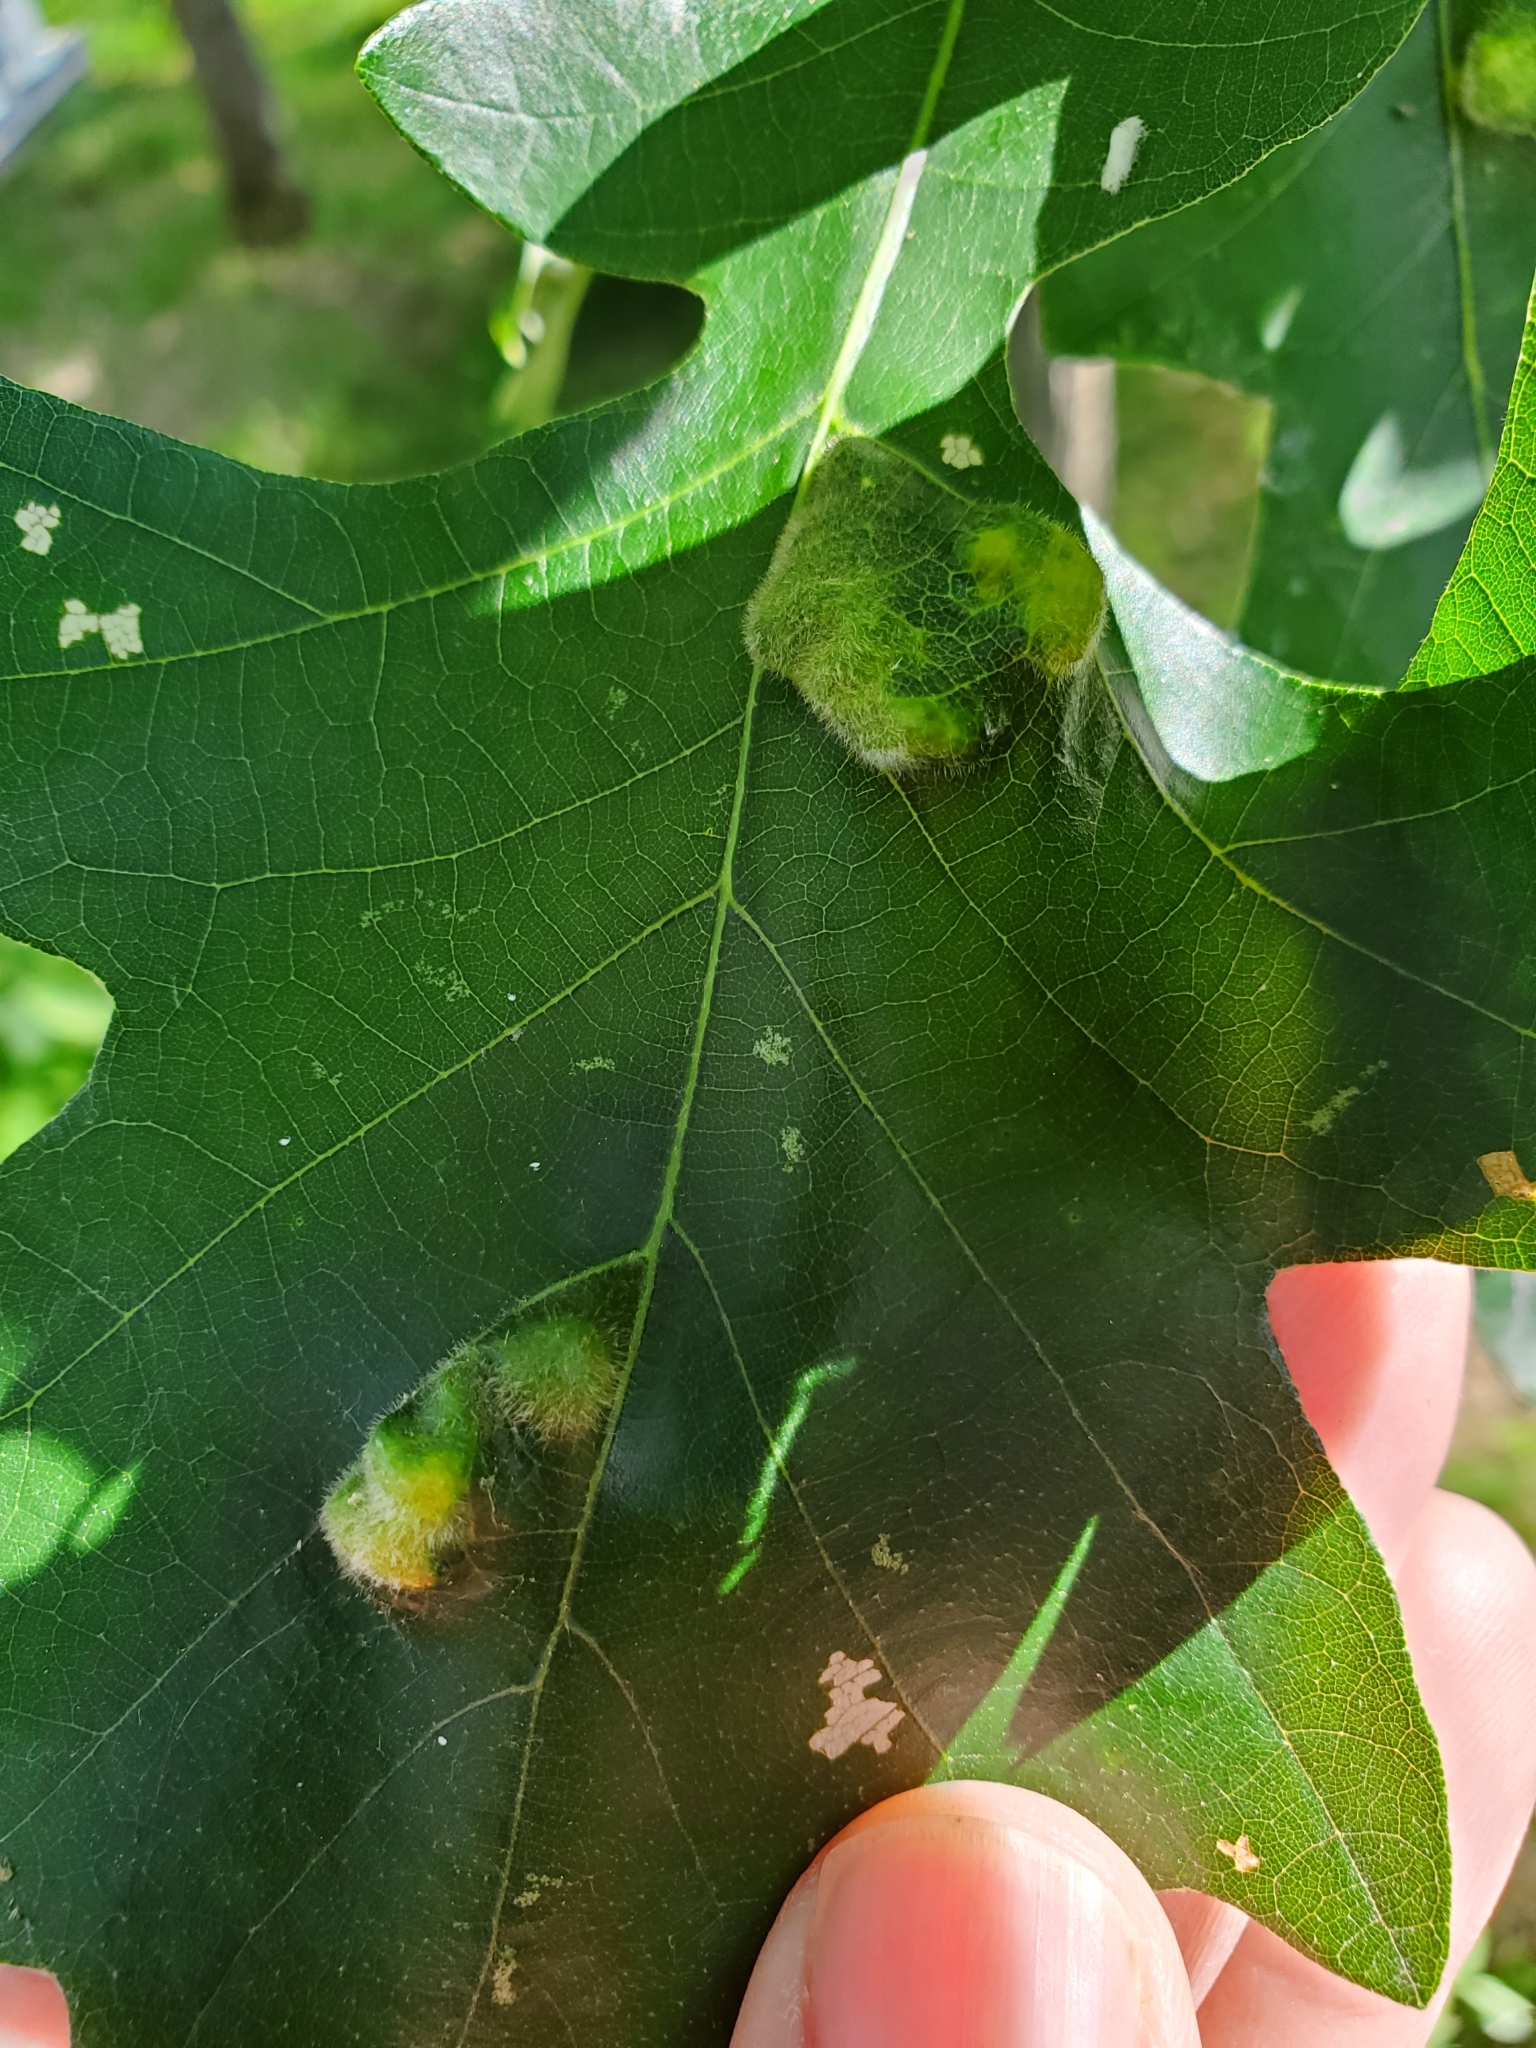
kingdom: Animalia
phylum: Arthropoda
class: Arachnida
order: Trombidiformes
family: Eriophyidae
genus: Aceria
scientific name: Aceria quercina
